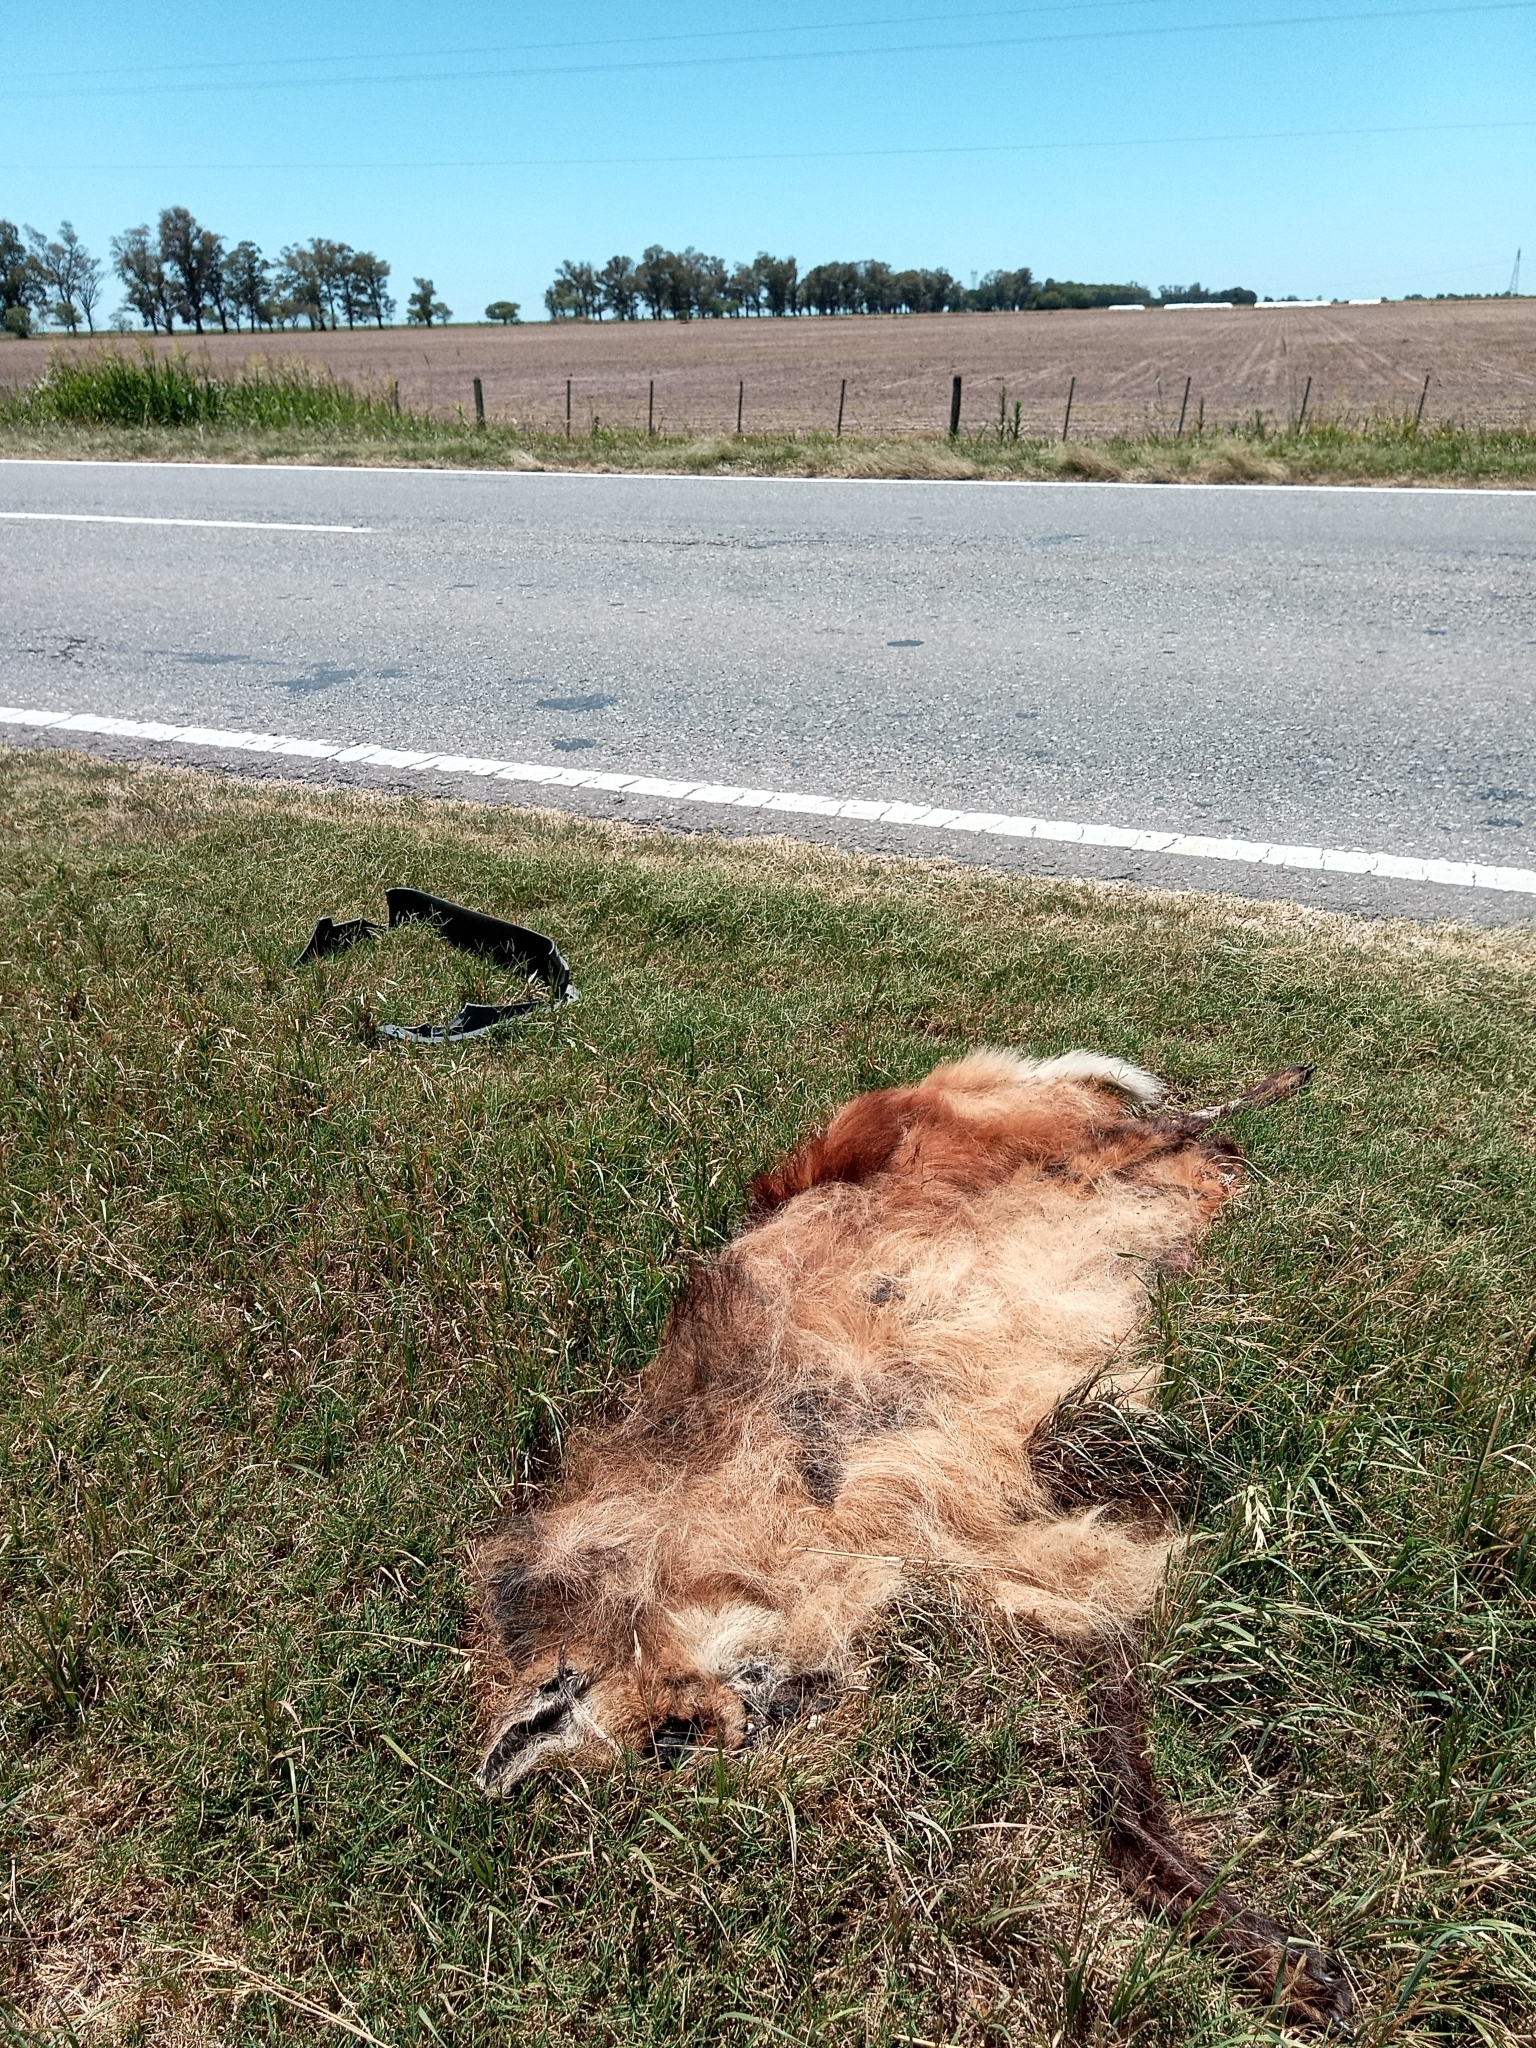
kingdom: Animalia
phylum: Chordata
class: Mammalia
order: Carnivora
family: Canidae
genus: Chrysocyon
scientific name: Chrysocyon brachyurus
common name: Maned wolf
